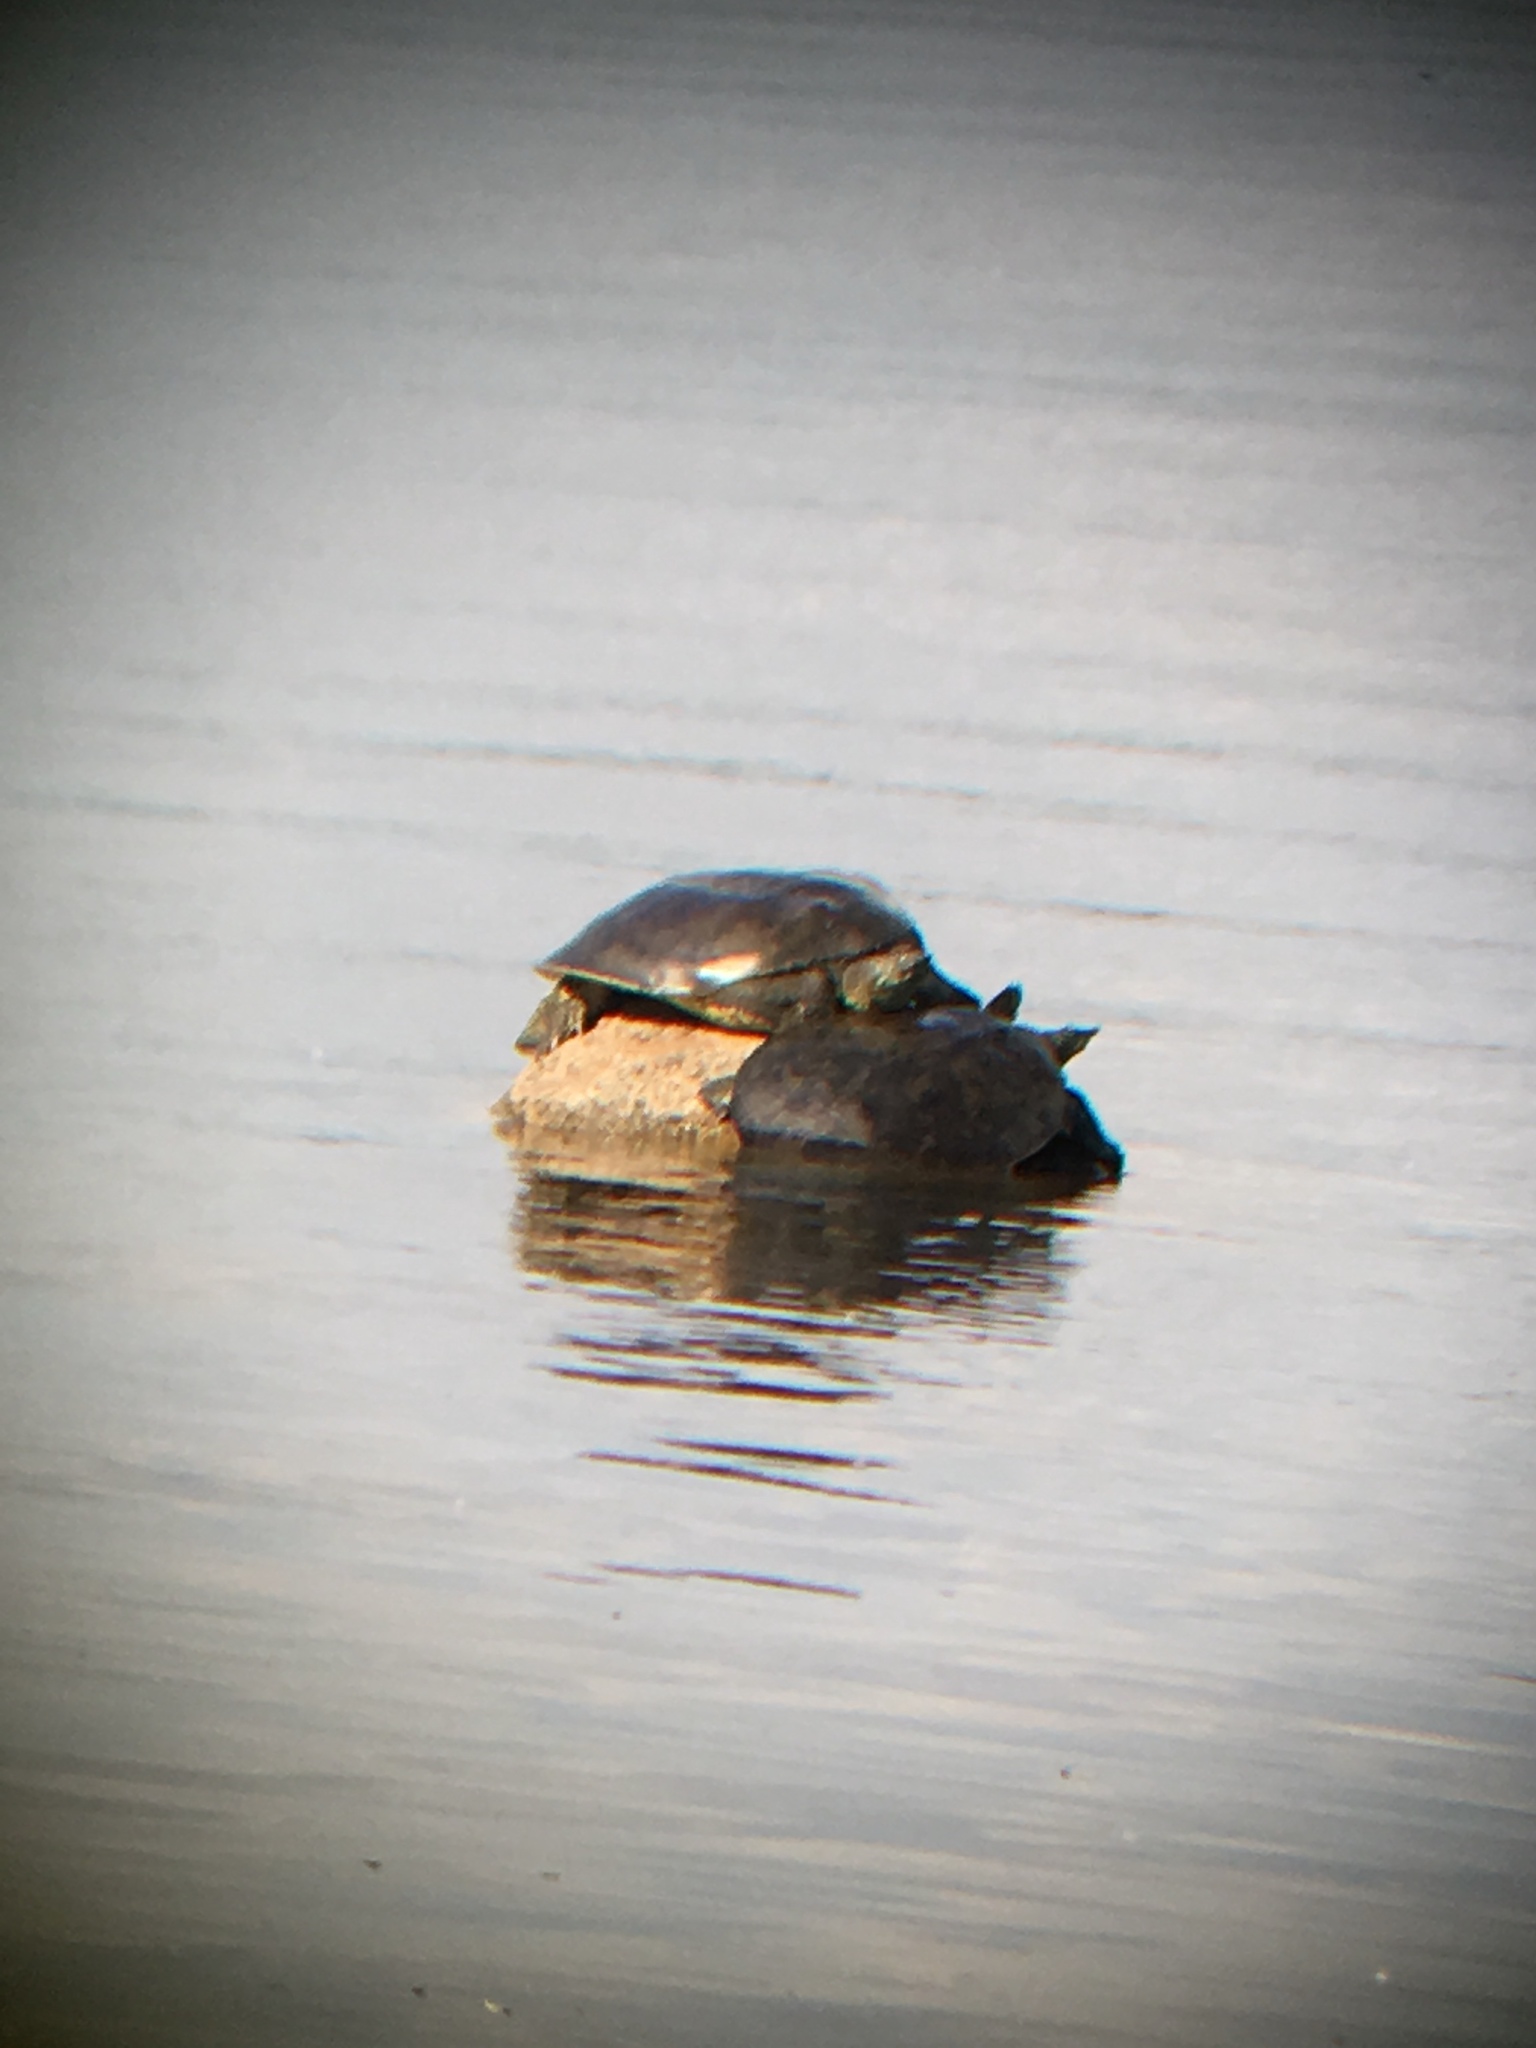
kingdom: Animalia
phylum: Chordata
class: Testudines
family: Trionychidae
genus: Apalone
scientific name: Apalone spinifera
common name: Spiny softshell turtle
